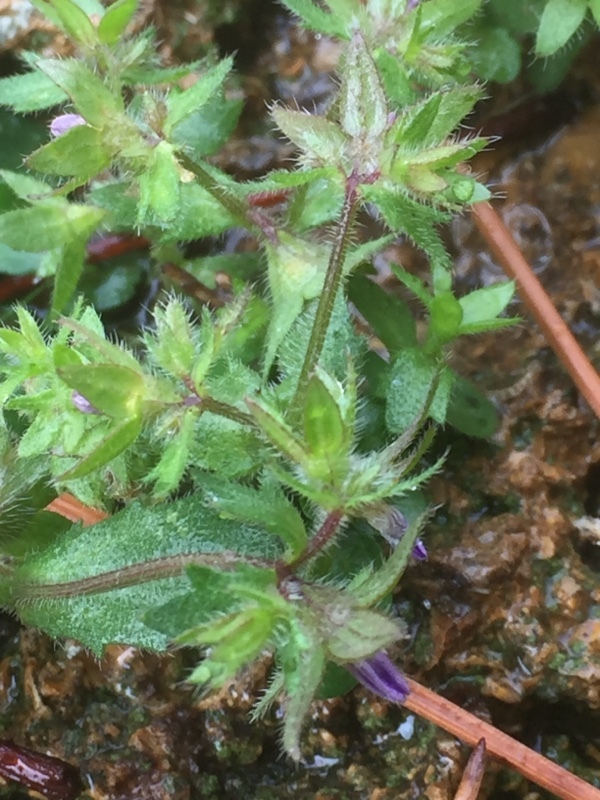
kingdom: Plantae
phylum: Tracheophyta
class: Magnoliopsida
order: Asterales
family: Campanulaceae
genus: Legousia
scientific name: Legousia hybrida
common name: Venus's-looking-glass
